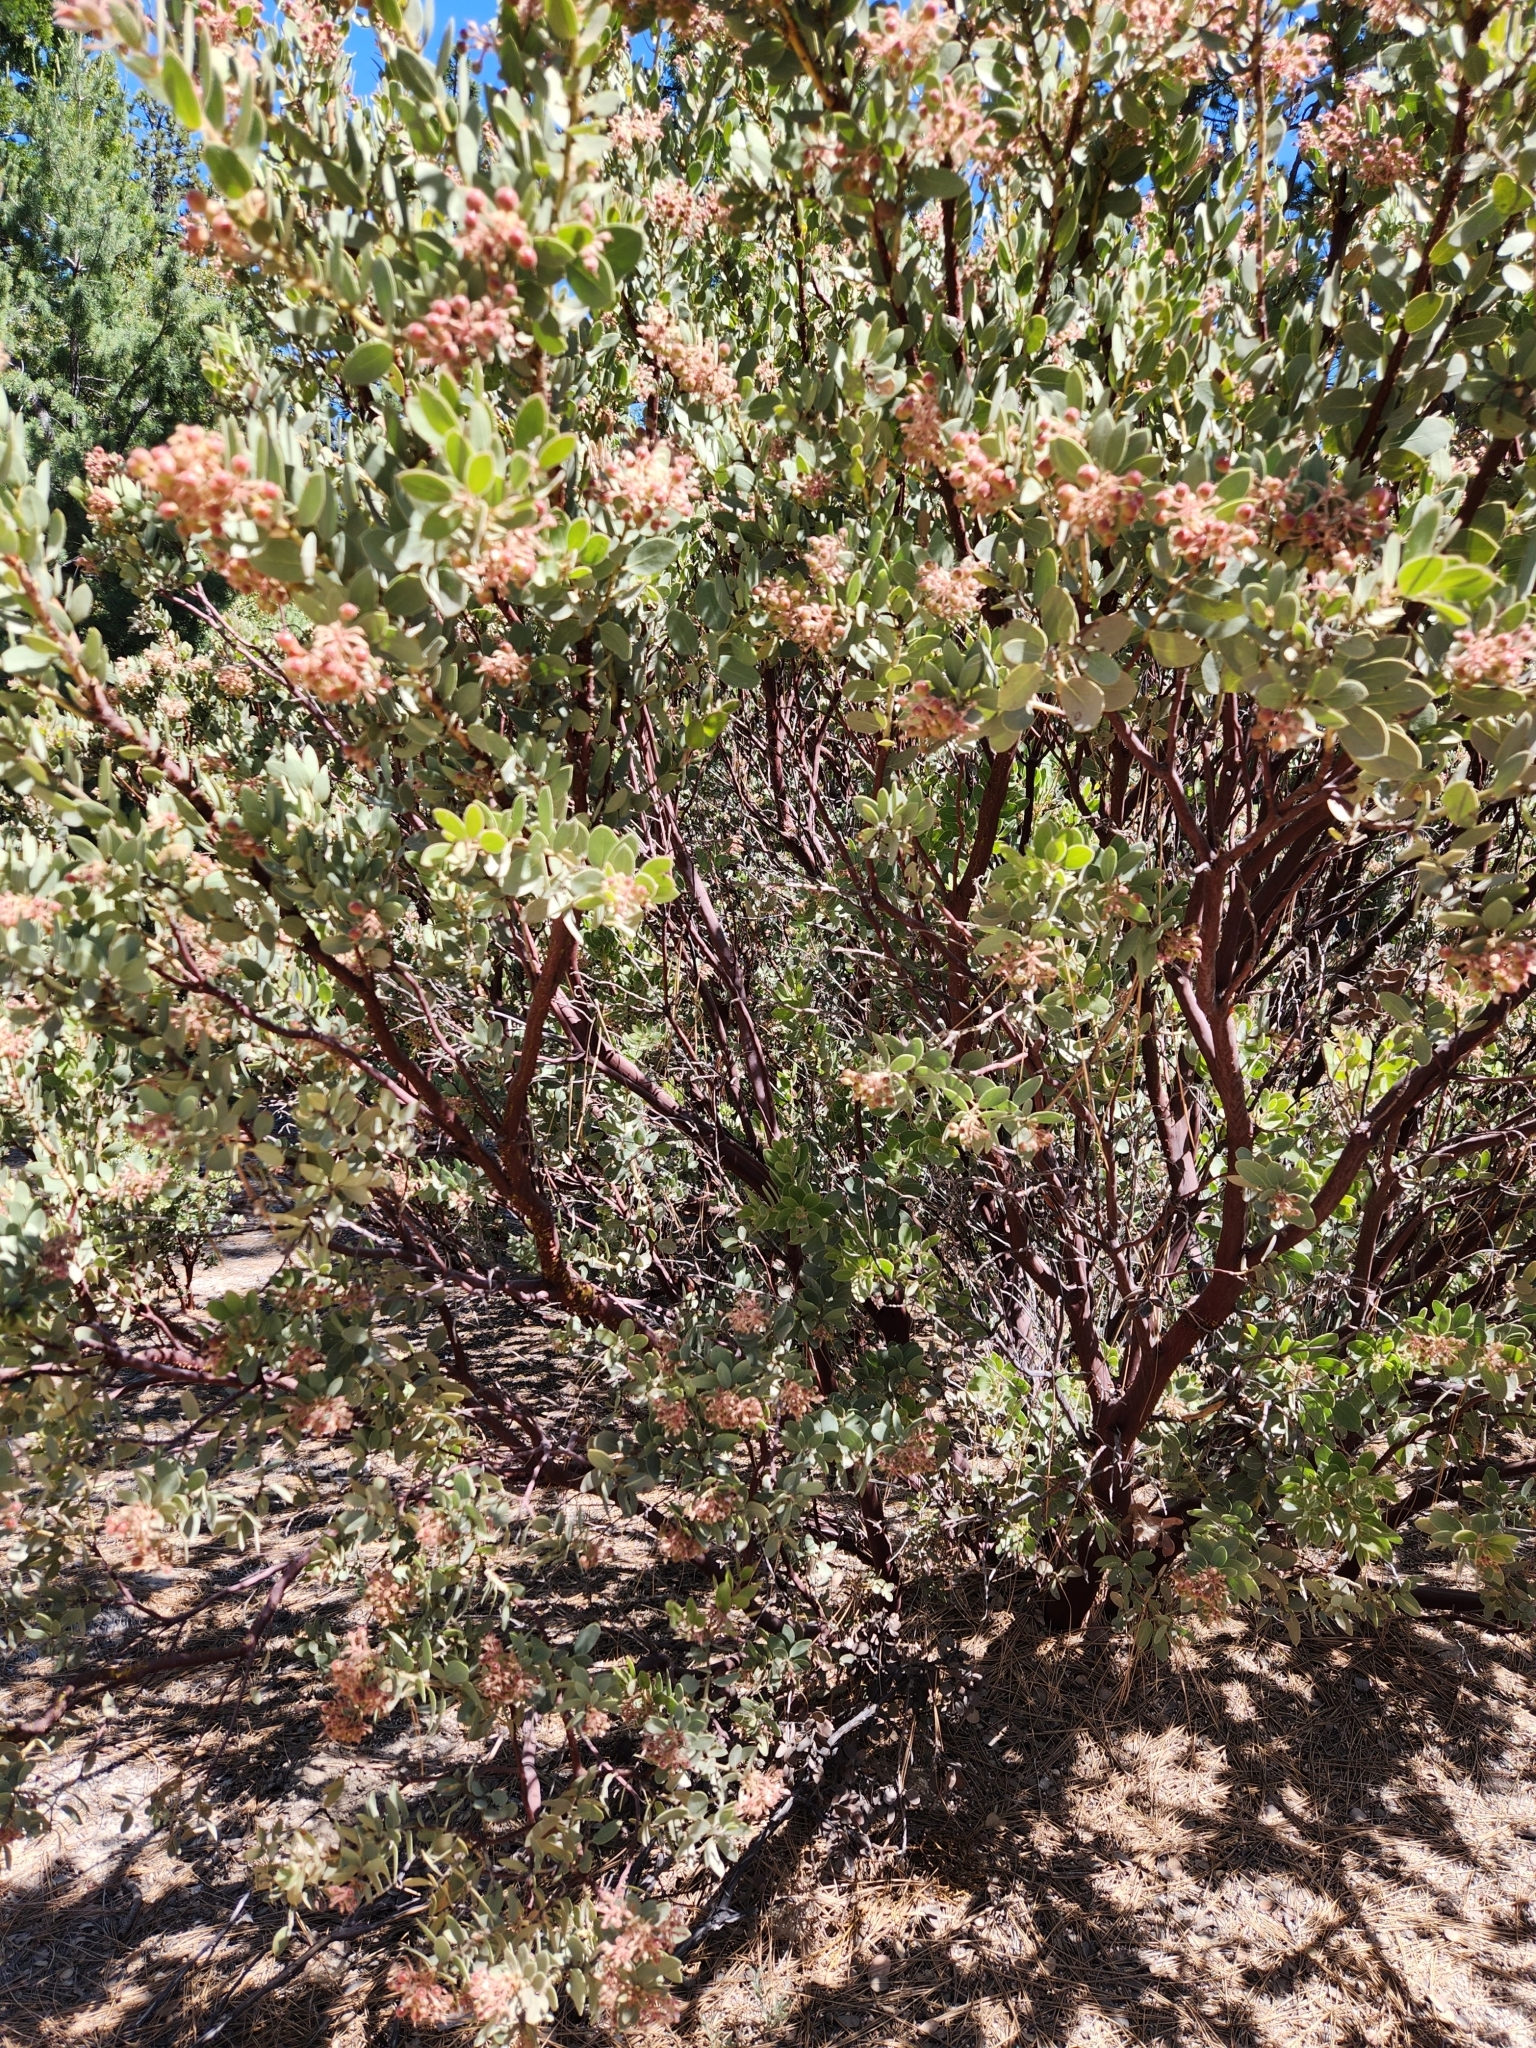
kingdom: Plantae
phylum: Tracheophyta
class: Magnoliopsida
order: Ericales
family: Ericaceae
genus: Arctostaphylos
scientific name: Arctostaphylos pringlei
